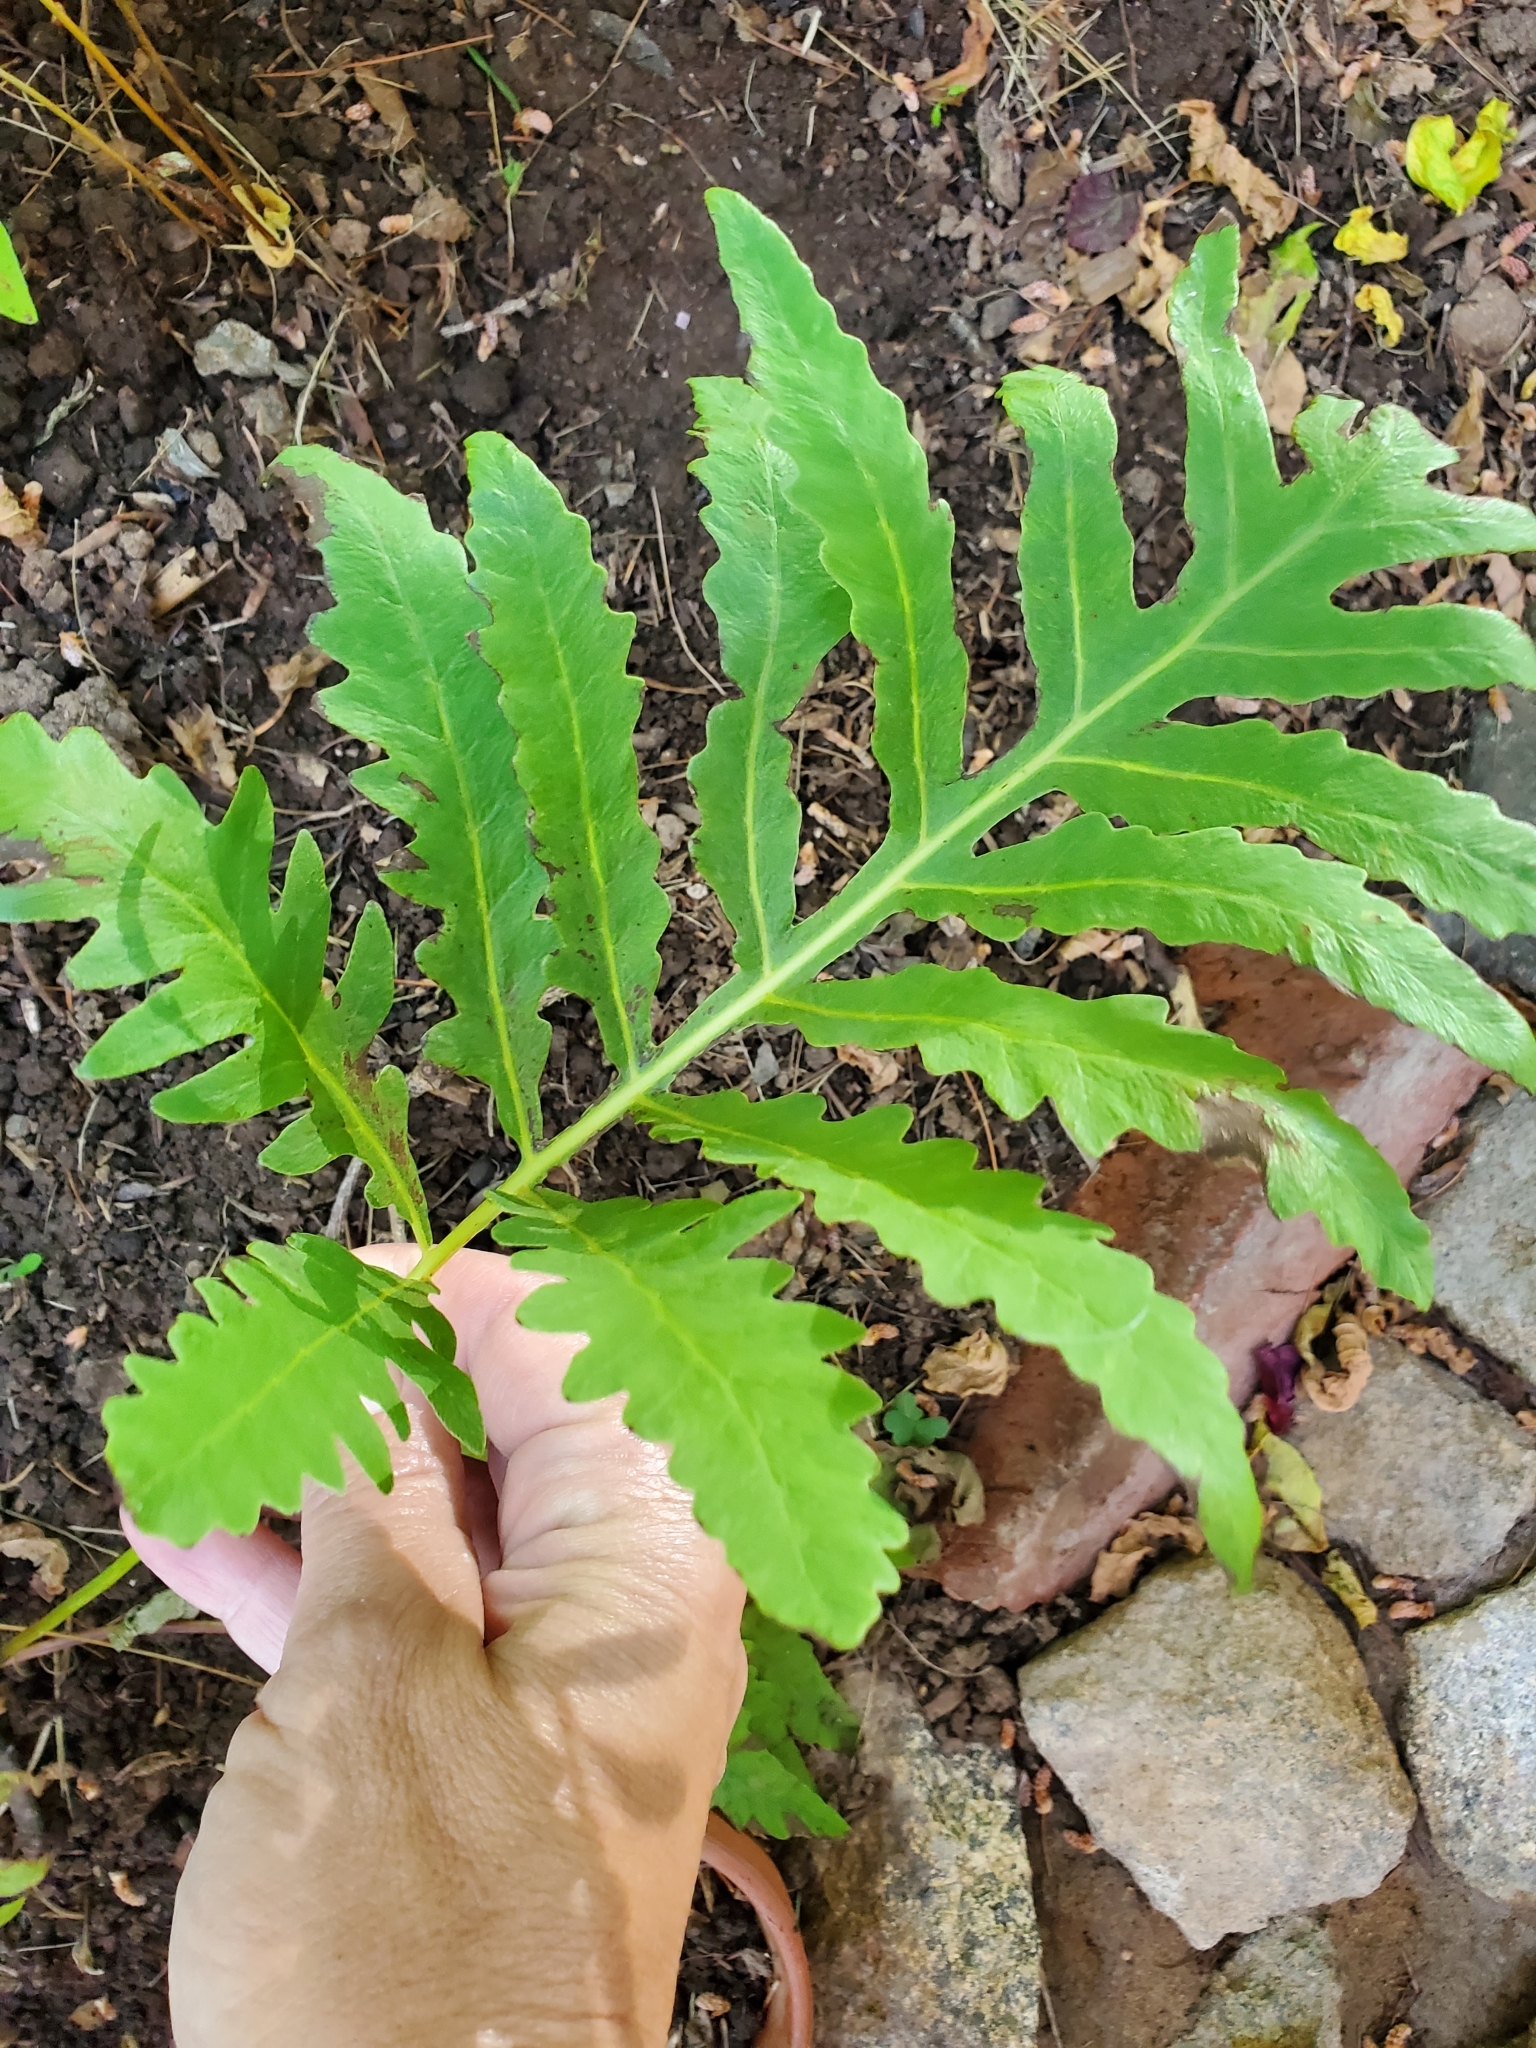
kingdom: Plantae
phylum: Tracheophyta
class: Polypodiopsida
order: Polypodiales
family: Onocleaceae
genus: Onoclea
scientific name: Onoclea sensibilis
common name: Sensitive fern
